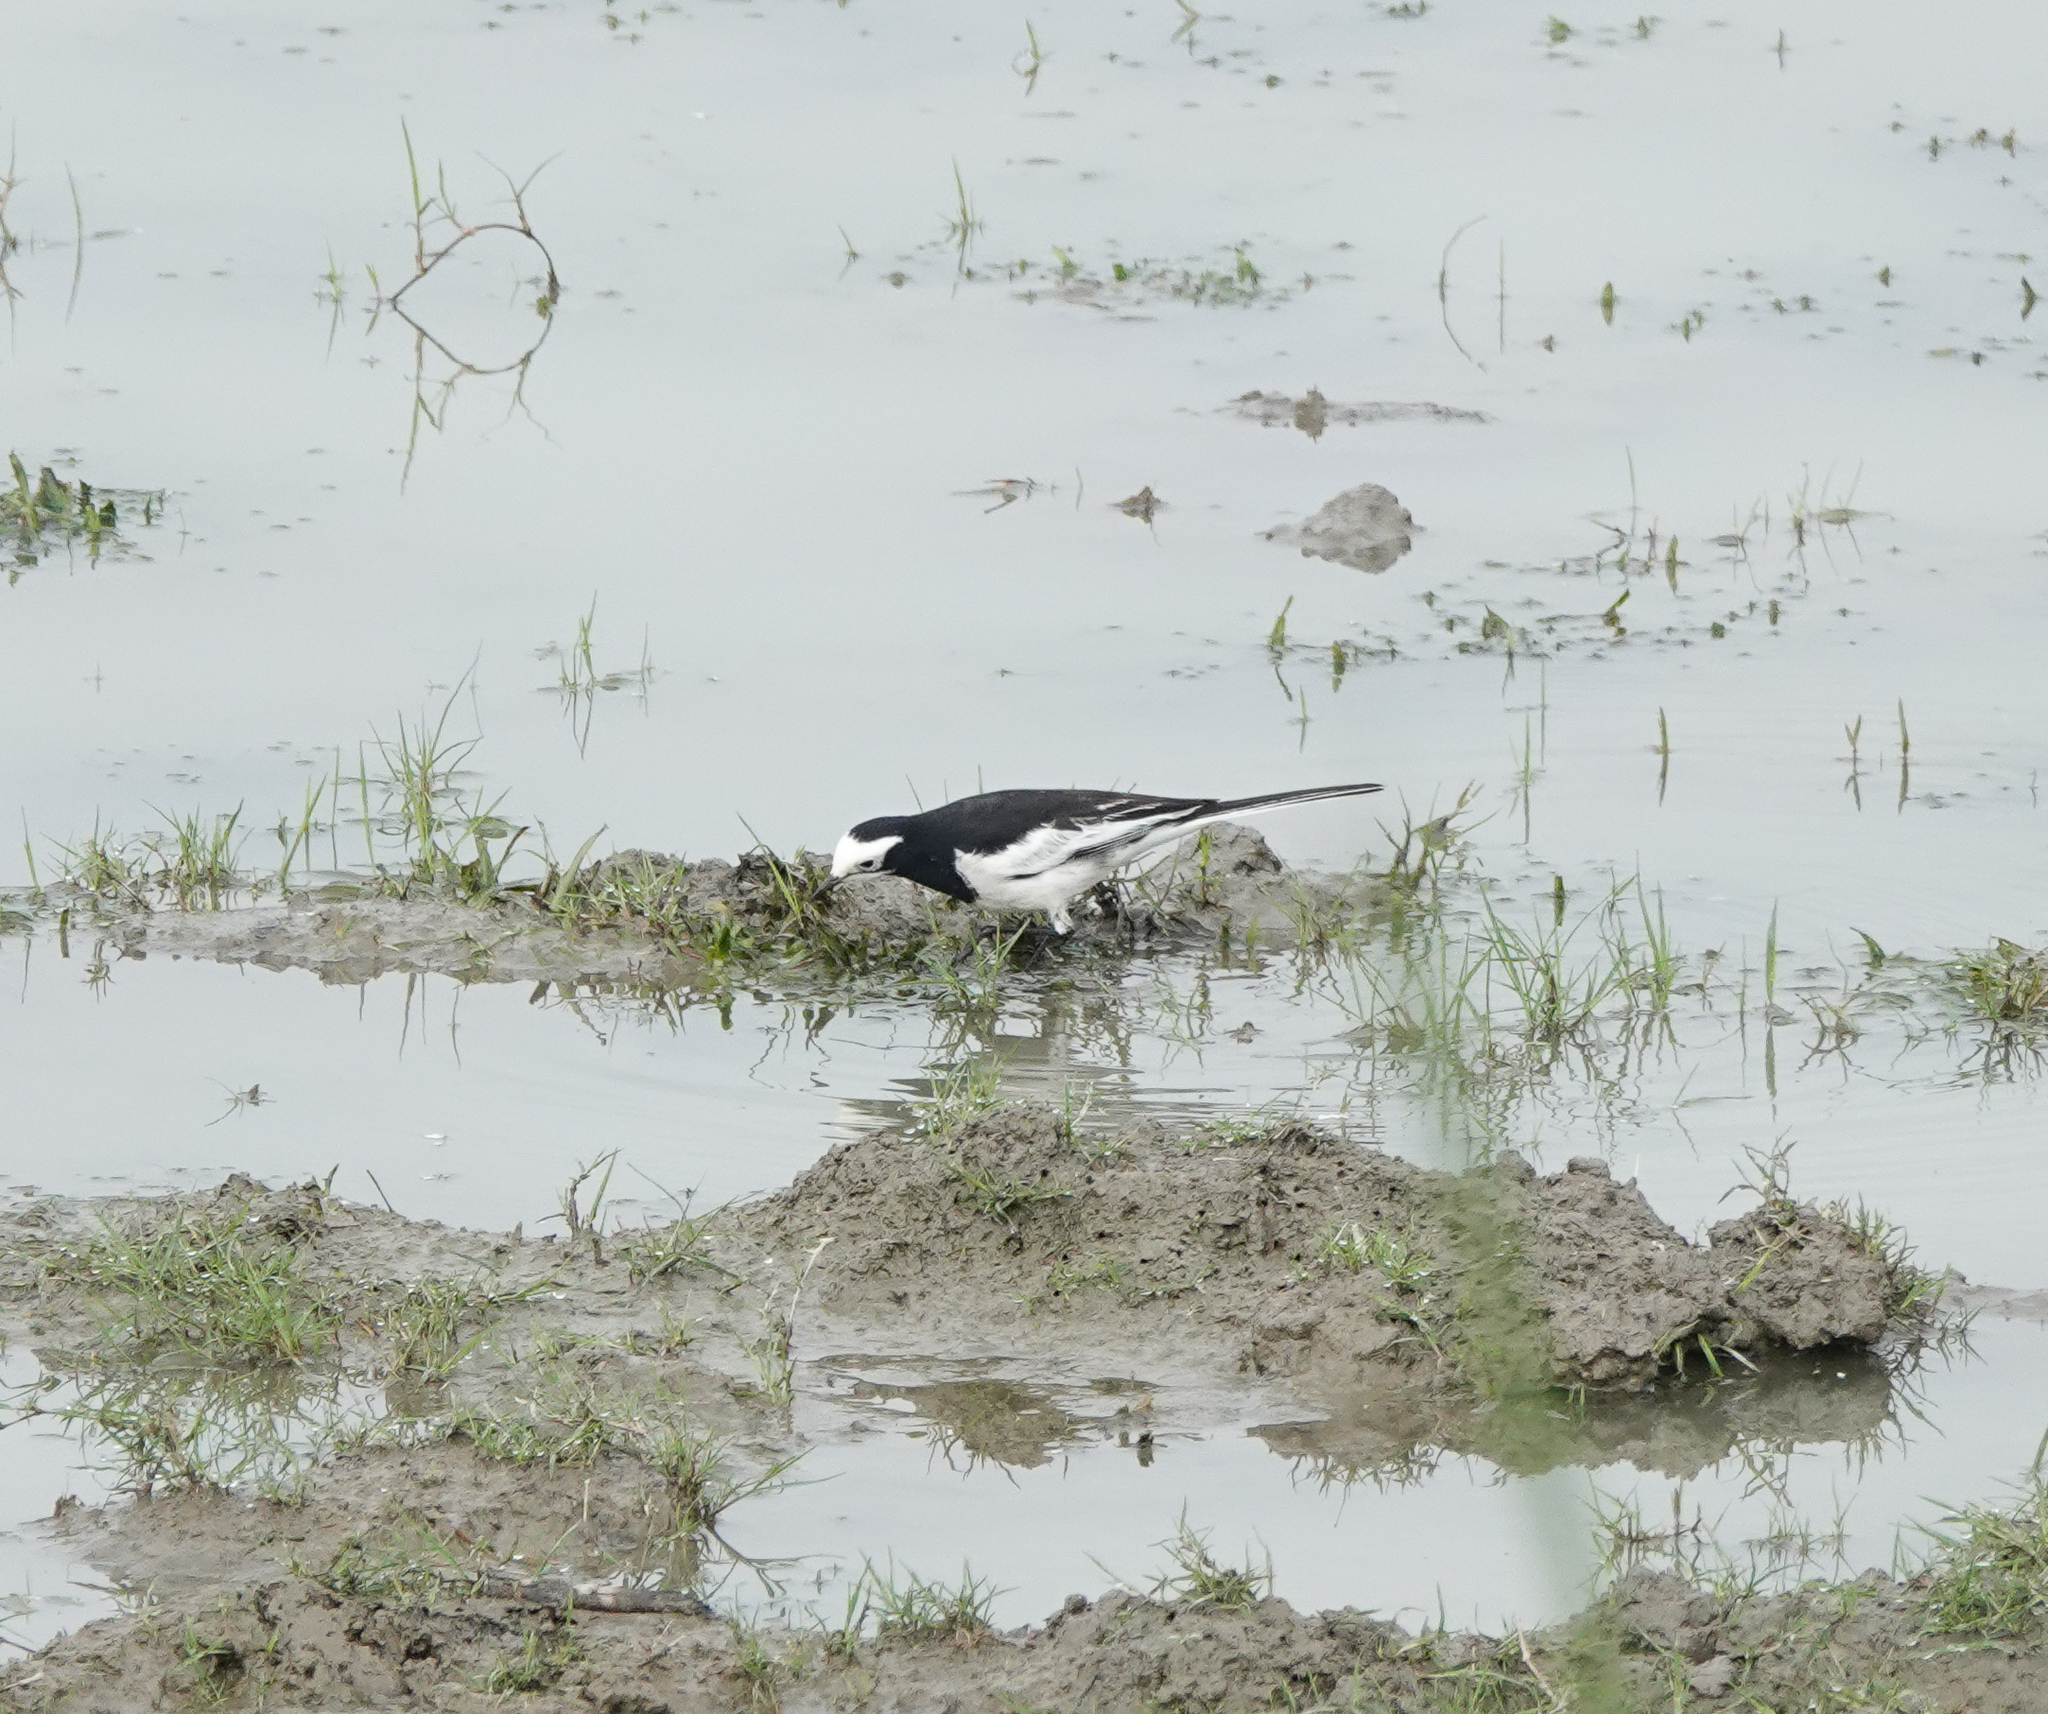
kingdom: Animalia
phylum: Chordata
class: Aves
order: Passeriformes
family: Motacillidae
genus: Motacilla
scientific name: Motacilla alba
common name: White wagtail
